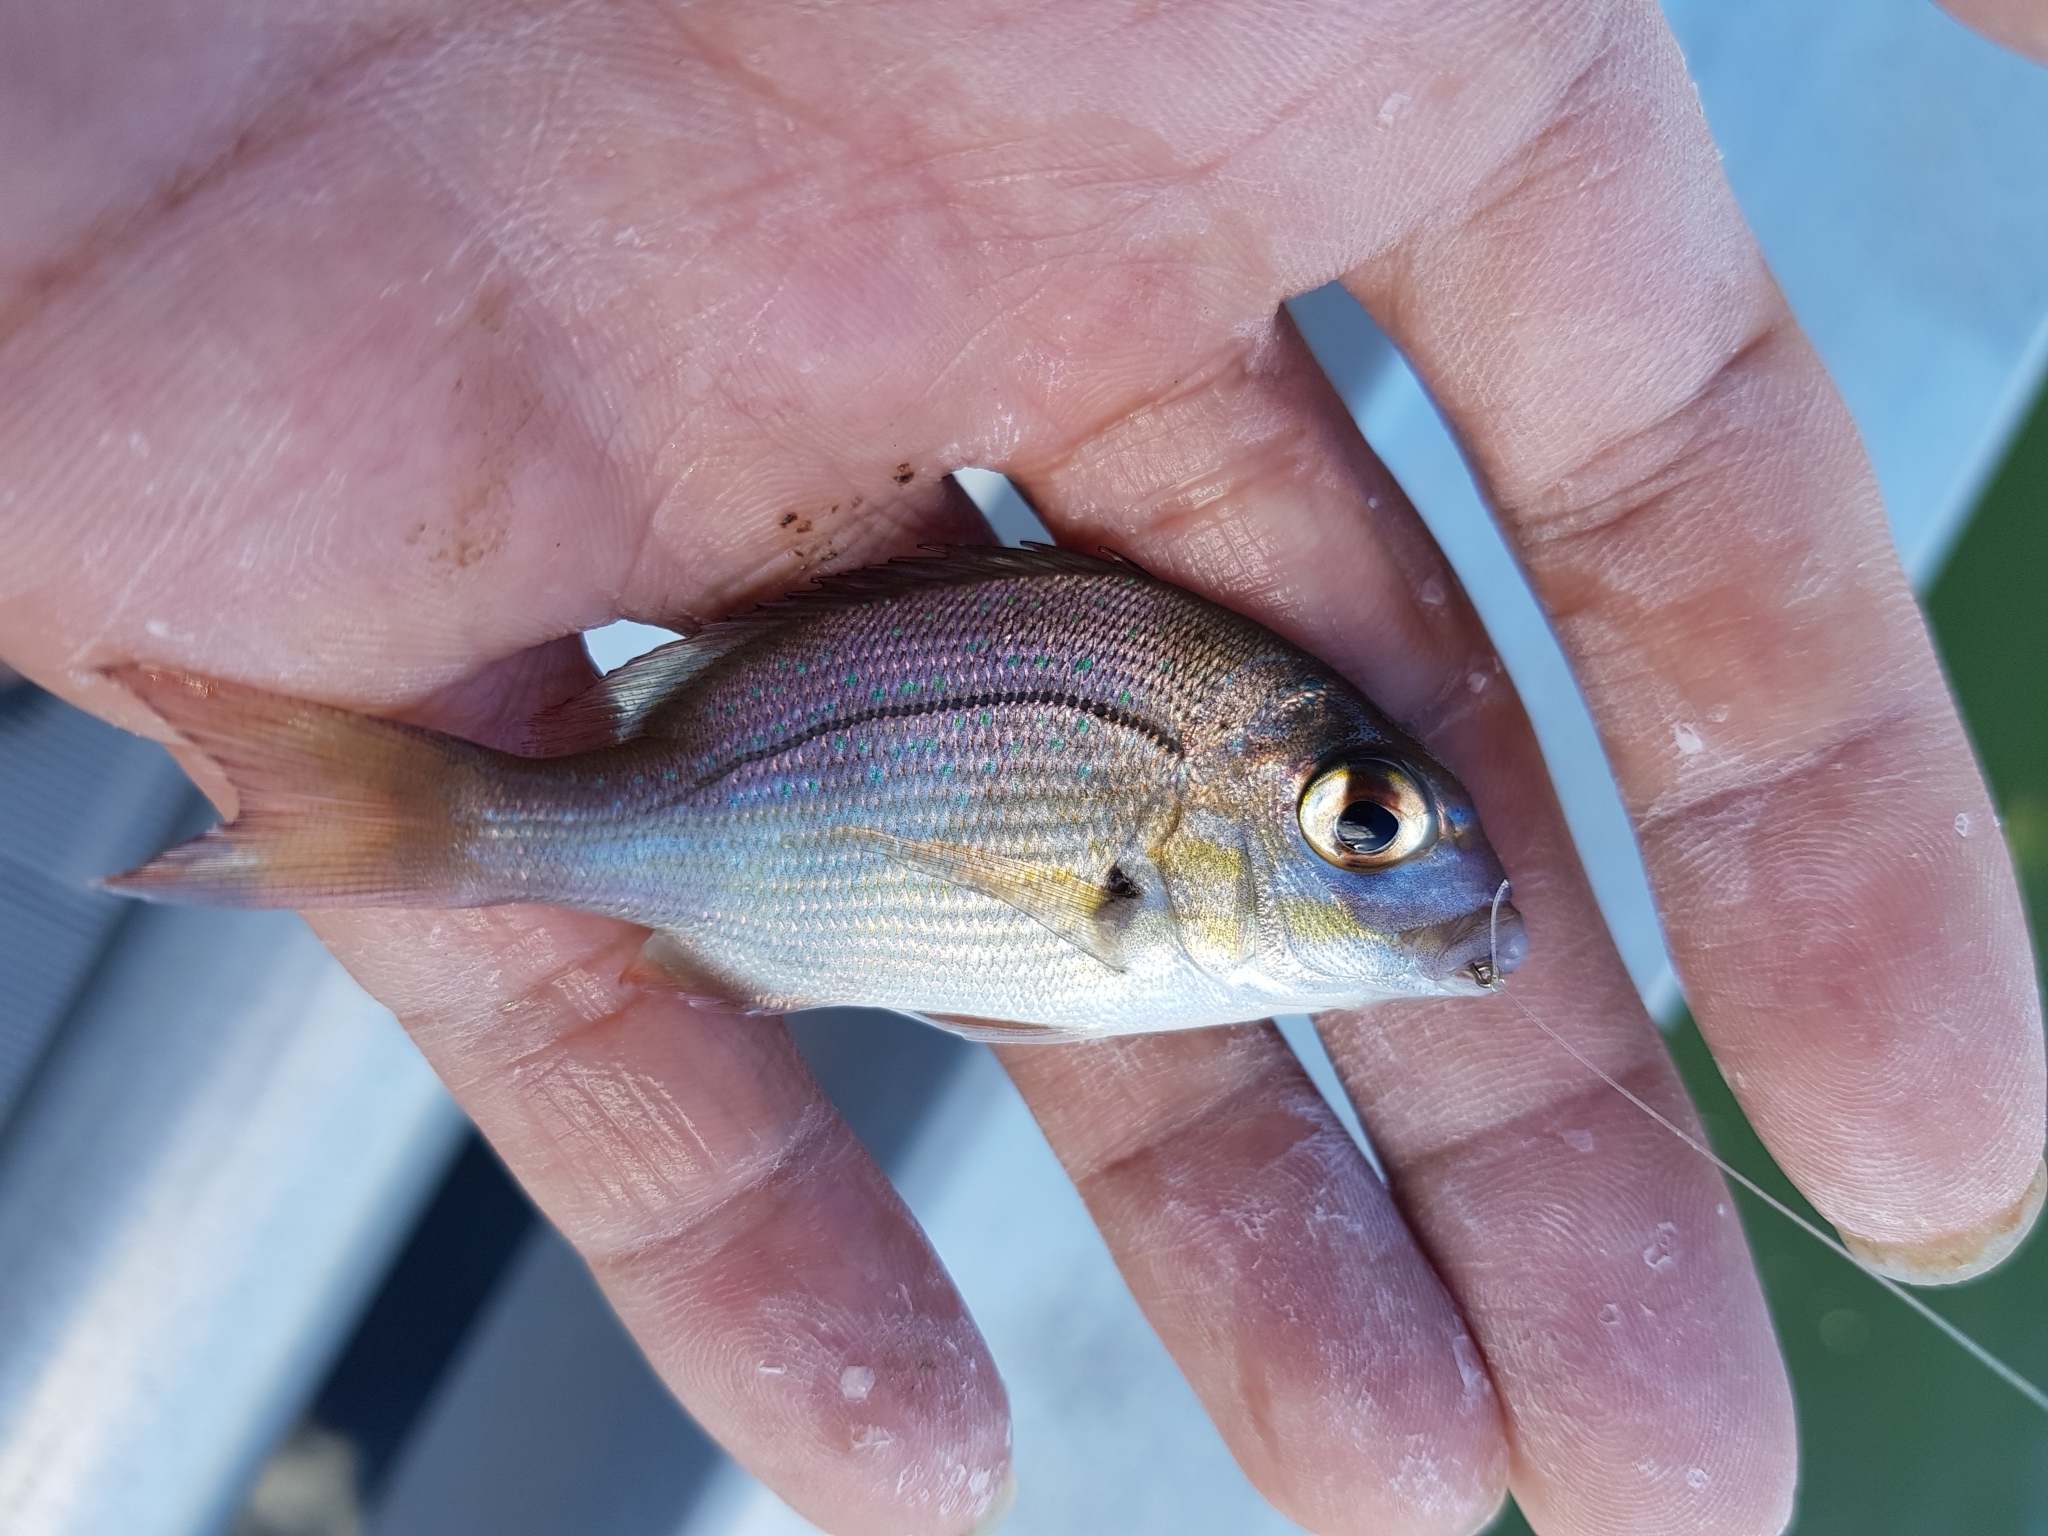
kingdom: Animalia
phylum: Chordata
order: Perciformes
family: Sparidae
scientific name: Sparidae
